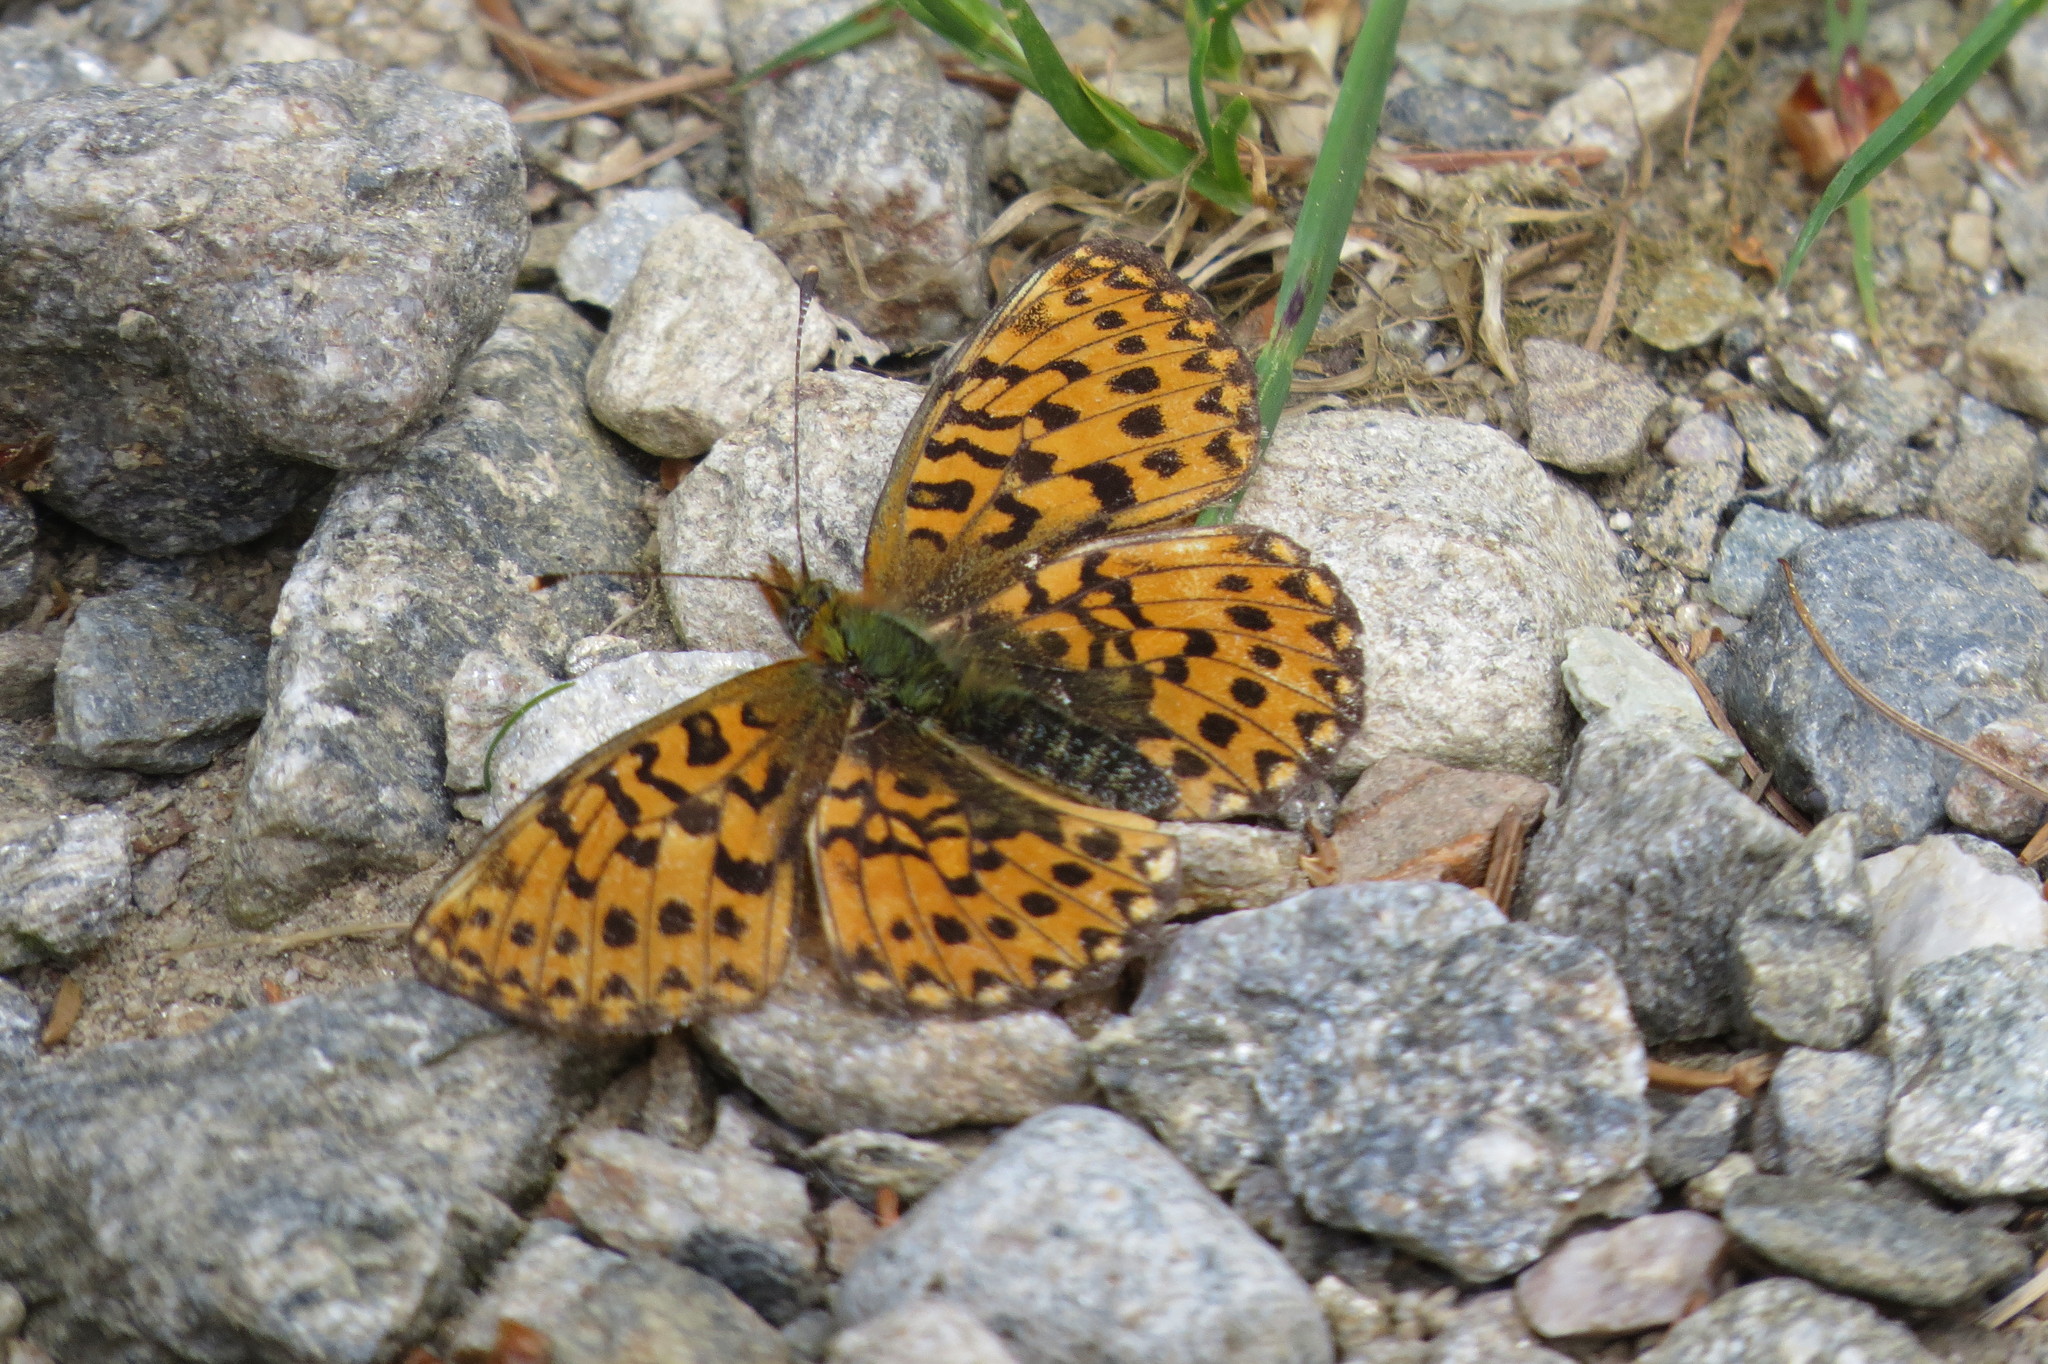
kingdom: Animalia
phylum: Arthropoda
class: Insecta
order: Lepidoptera
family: Nymphalidae
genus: Clossiana
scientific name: Clossiana euphrosyne
